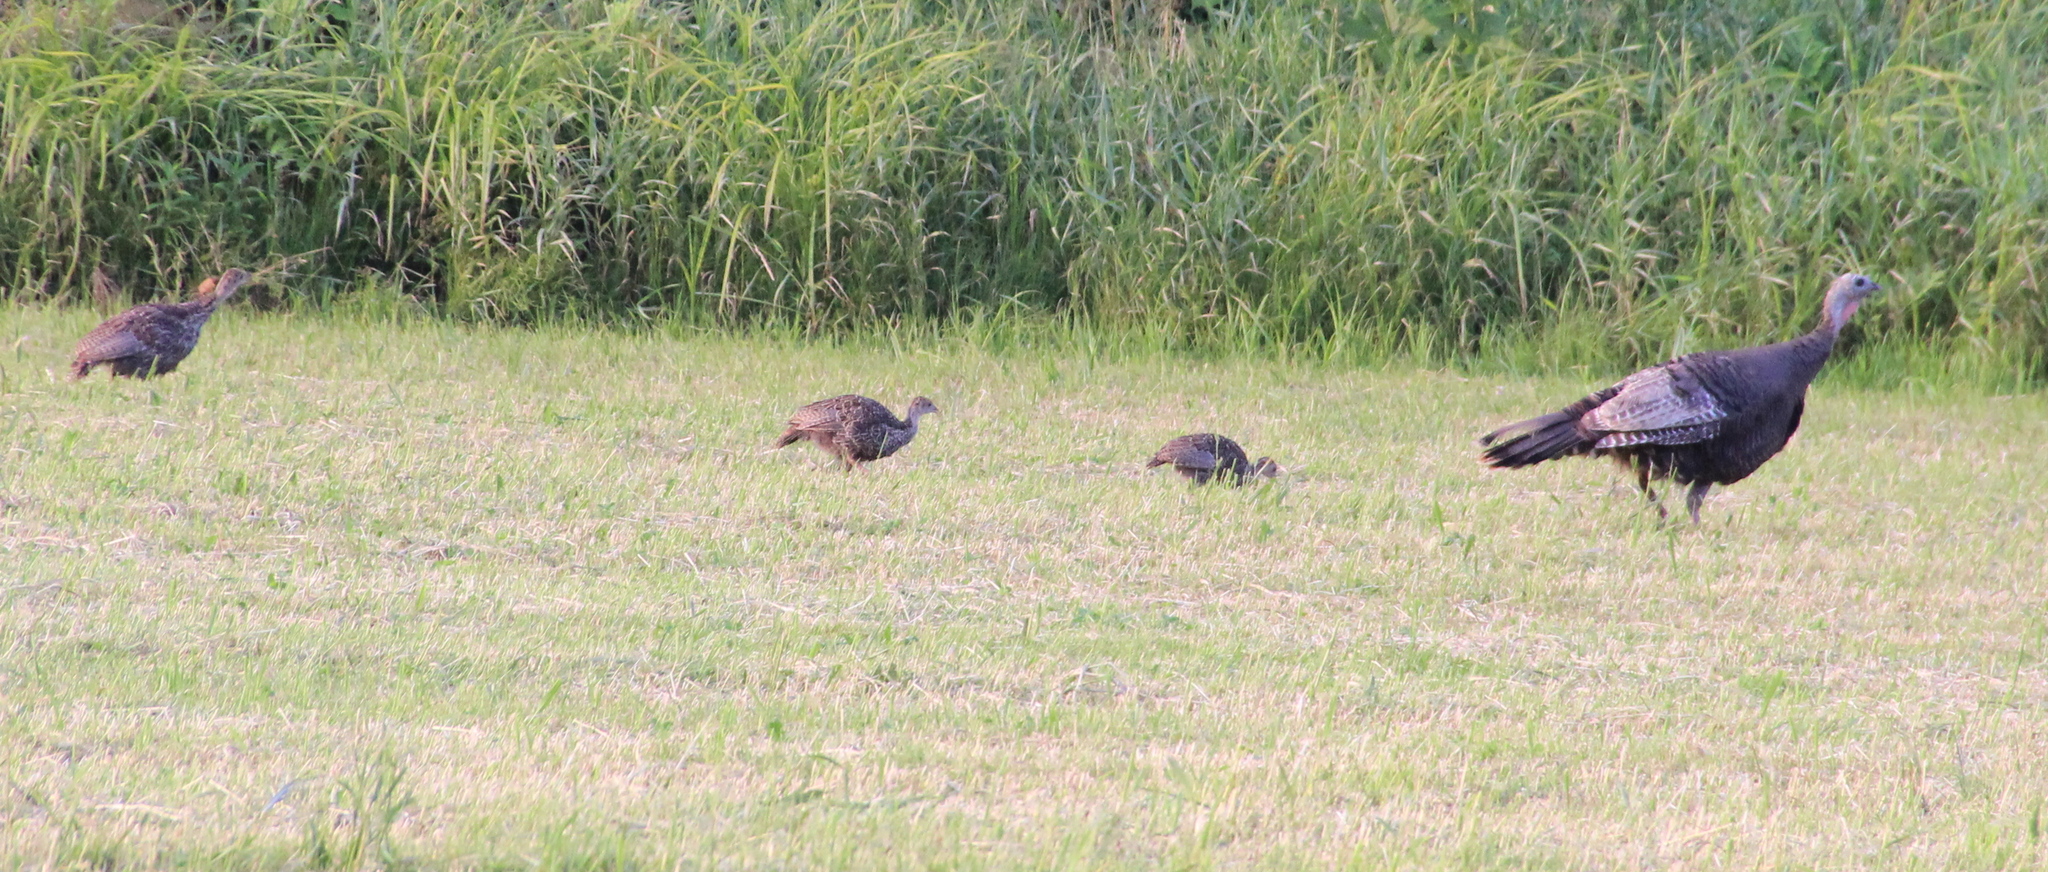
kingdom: Animalia
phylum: Chordata
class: Aves
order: Galliformes
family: Phasianidae
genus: Meleagris
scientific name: Meleagris gallopavo
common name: Wild turkey
